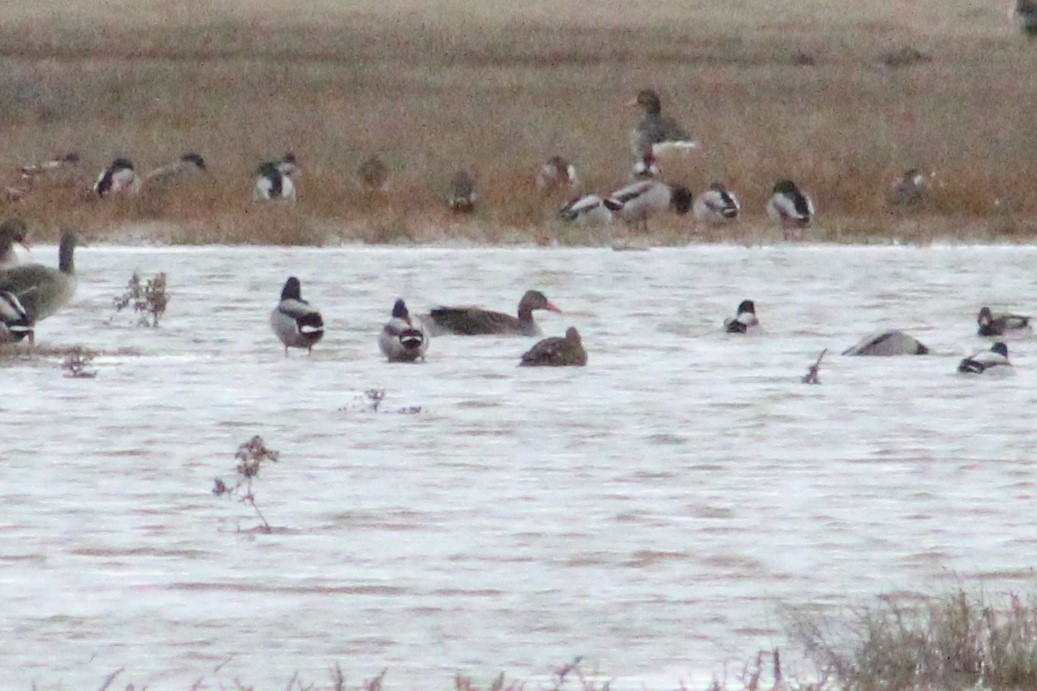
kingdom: Animalia
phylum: Chordata
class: Aves
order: Anseriformes
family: Anatidae
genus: Anas
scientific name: Anas platyrhynchos
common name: Mallard
